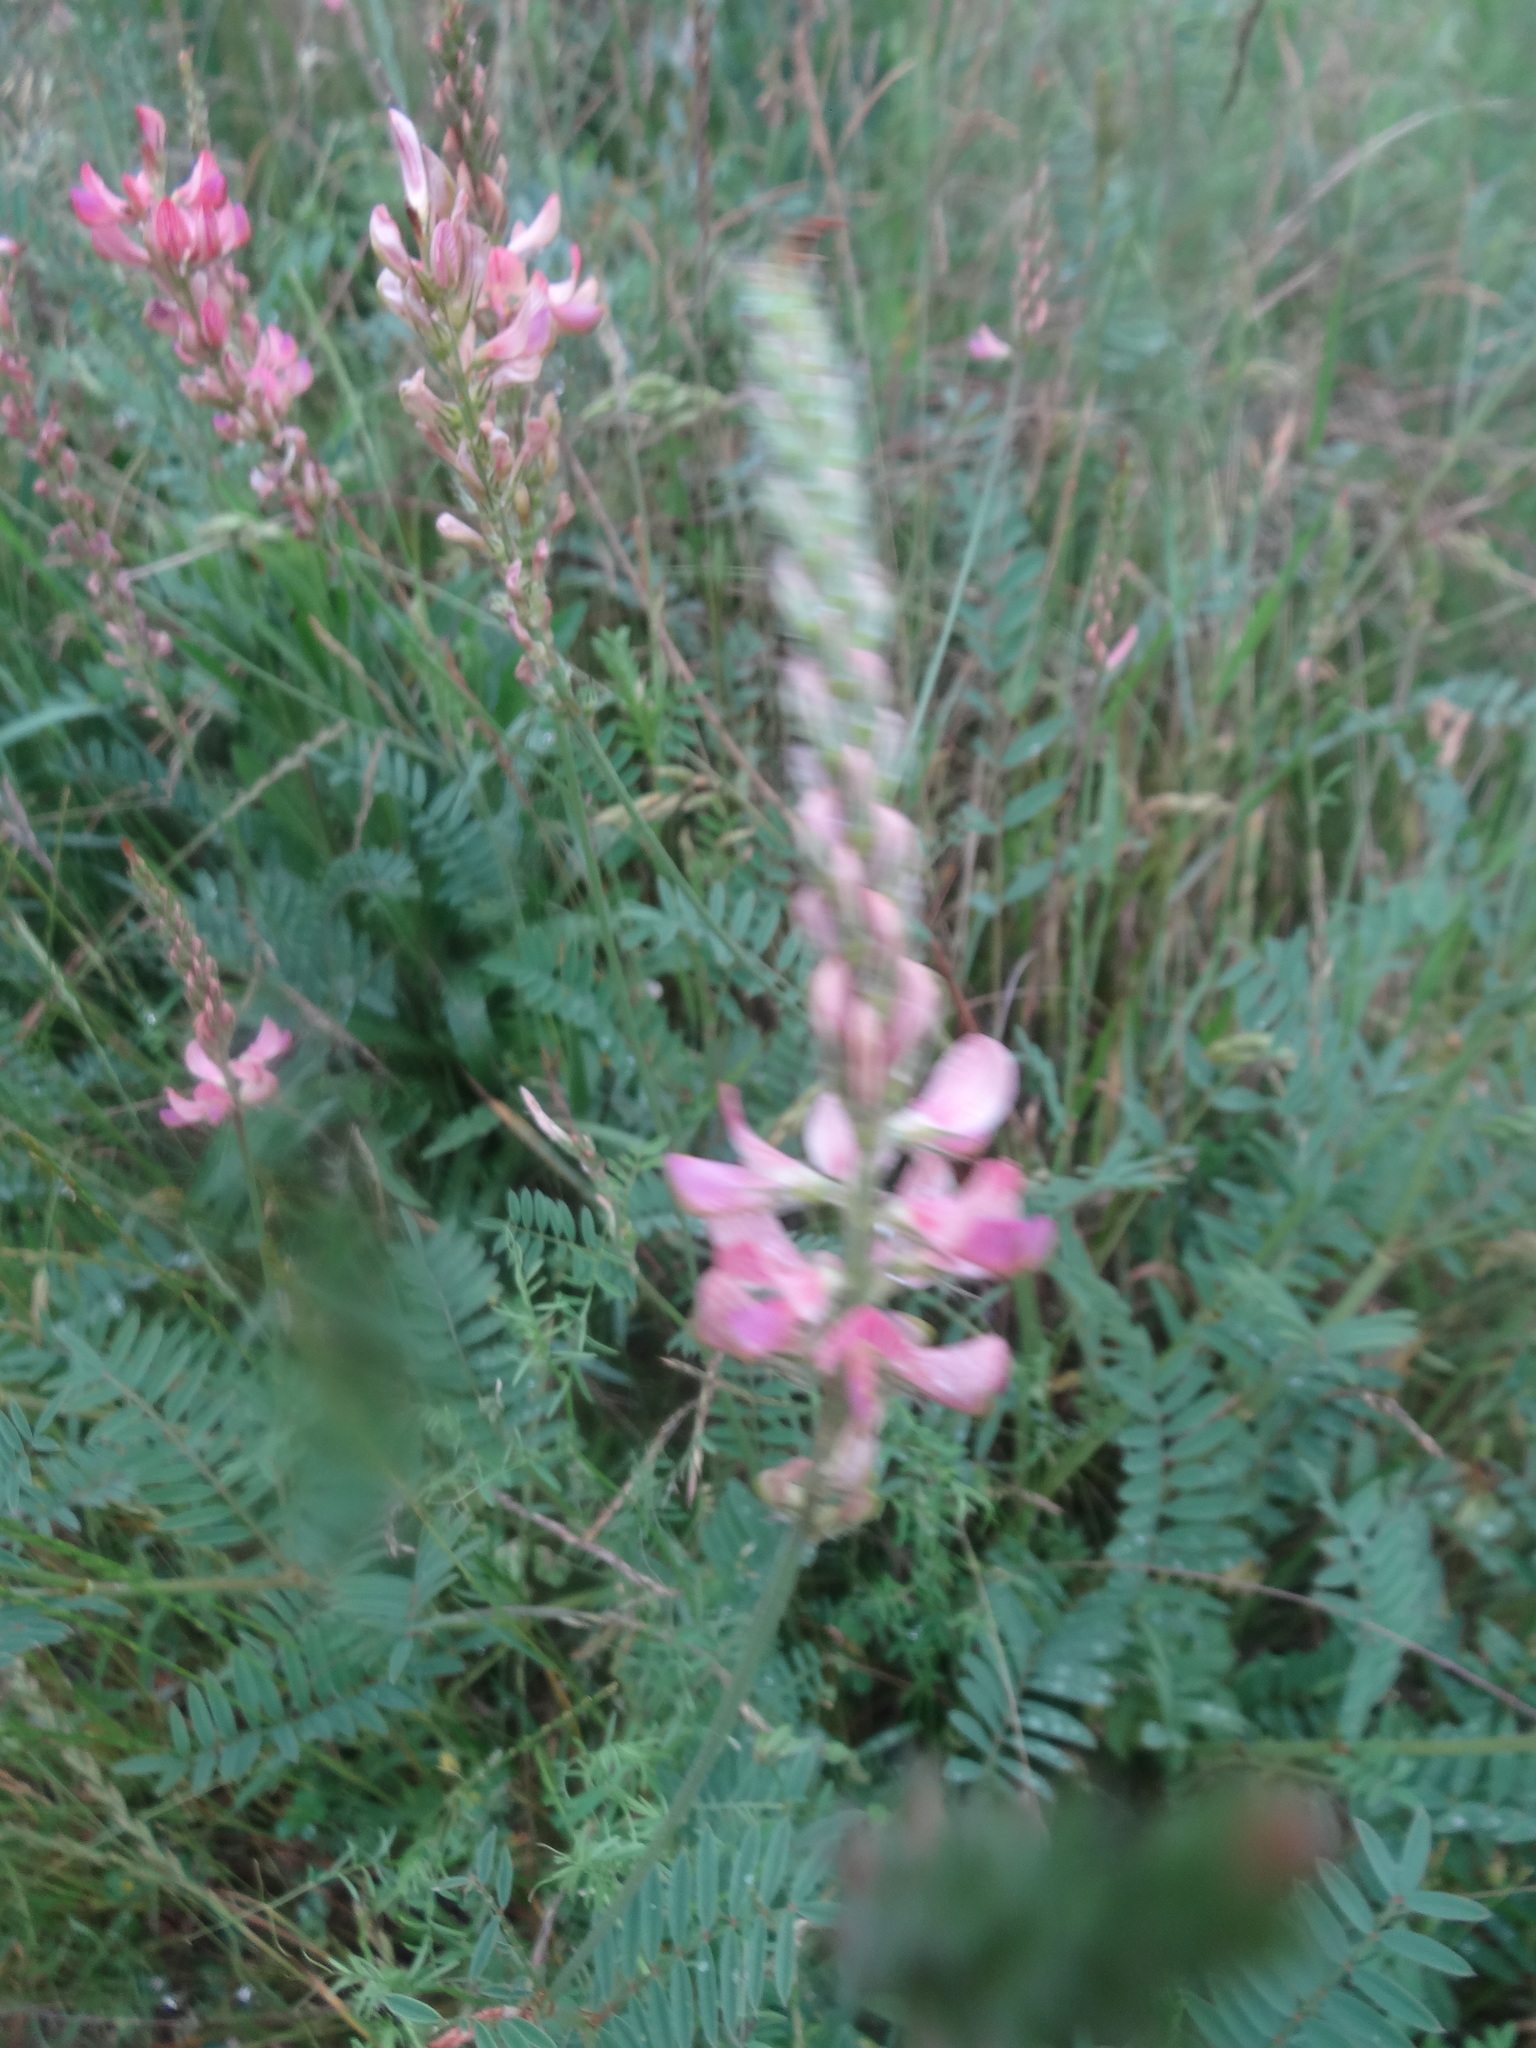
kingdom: Plantae
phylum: Tracheophyta
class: Magnoliopsida
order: Fabales
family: Fabaceae
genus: Onobrychis
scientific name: Onobrychis viciifolia
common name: Sainfoin
